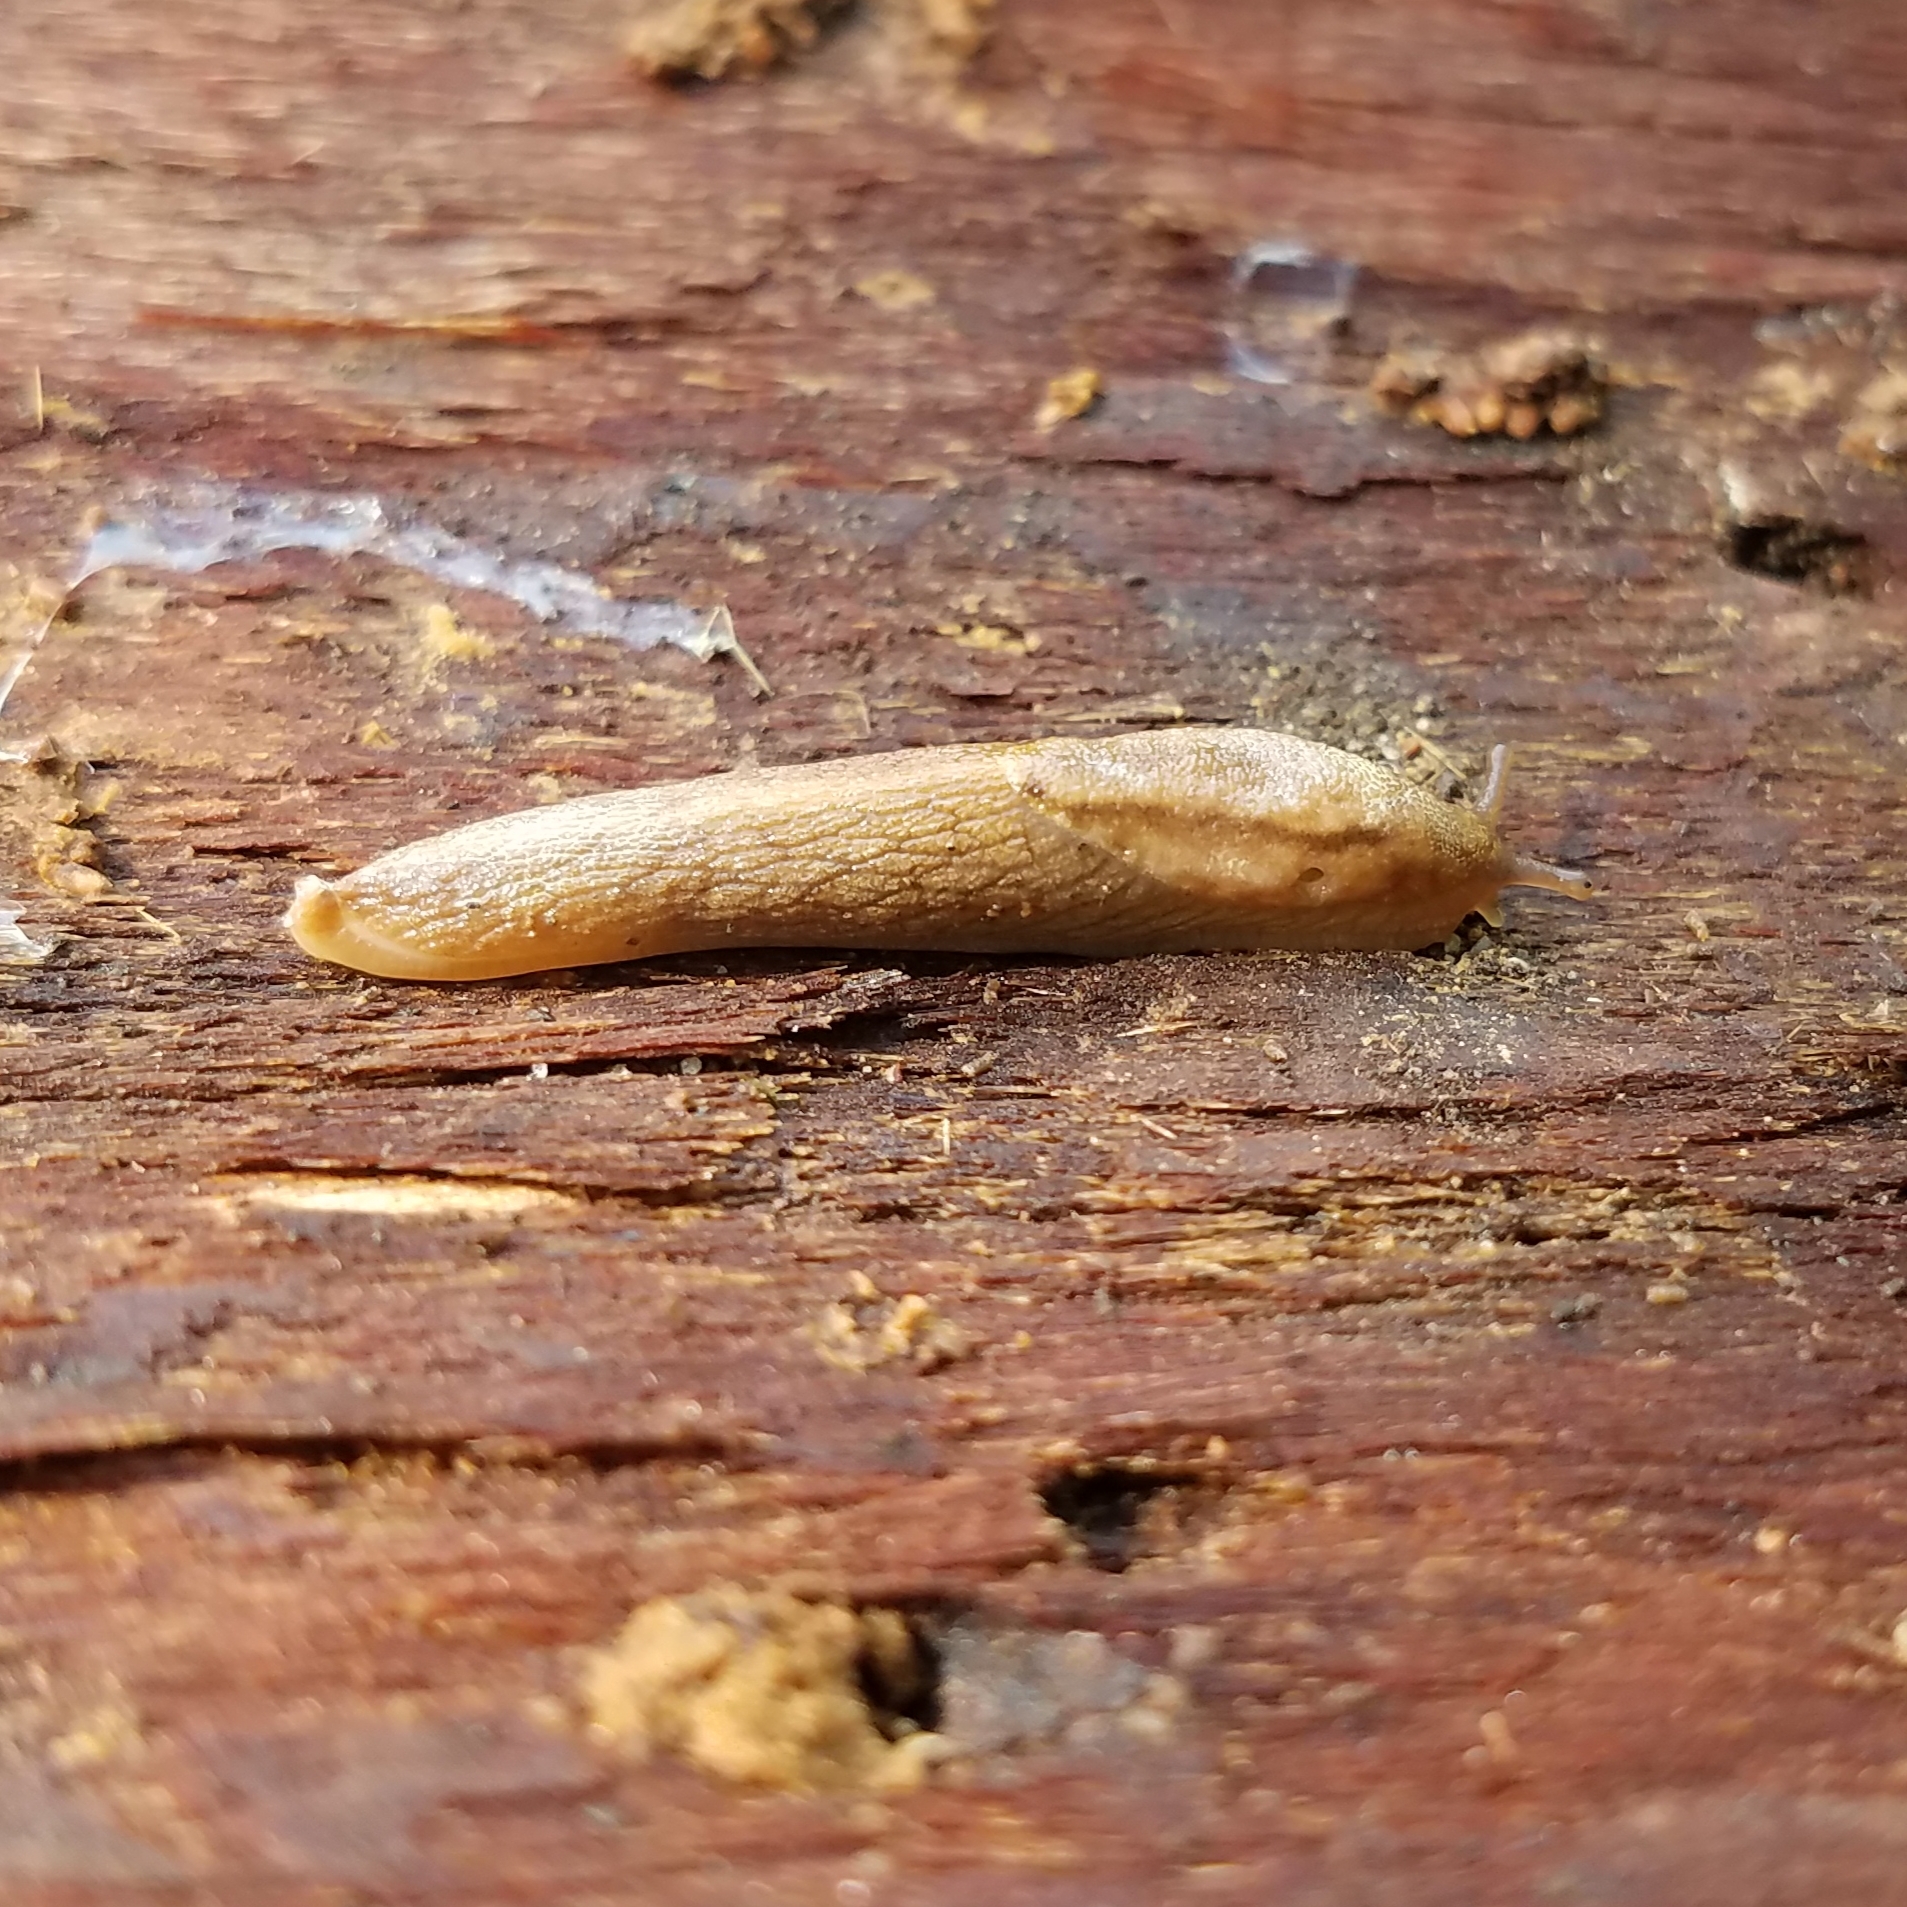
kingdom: Animalia
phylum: Mollusca
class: Gastropoda
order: Stylommatophora
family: Ariolimacidae
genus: Prophysaon
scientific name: Prophysaon andersonii
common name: Reticulate taildropper
